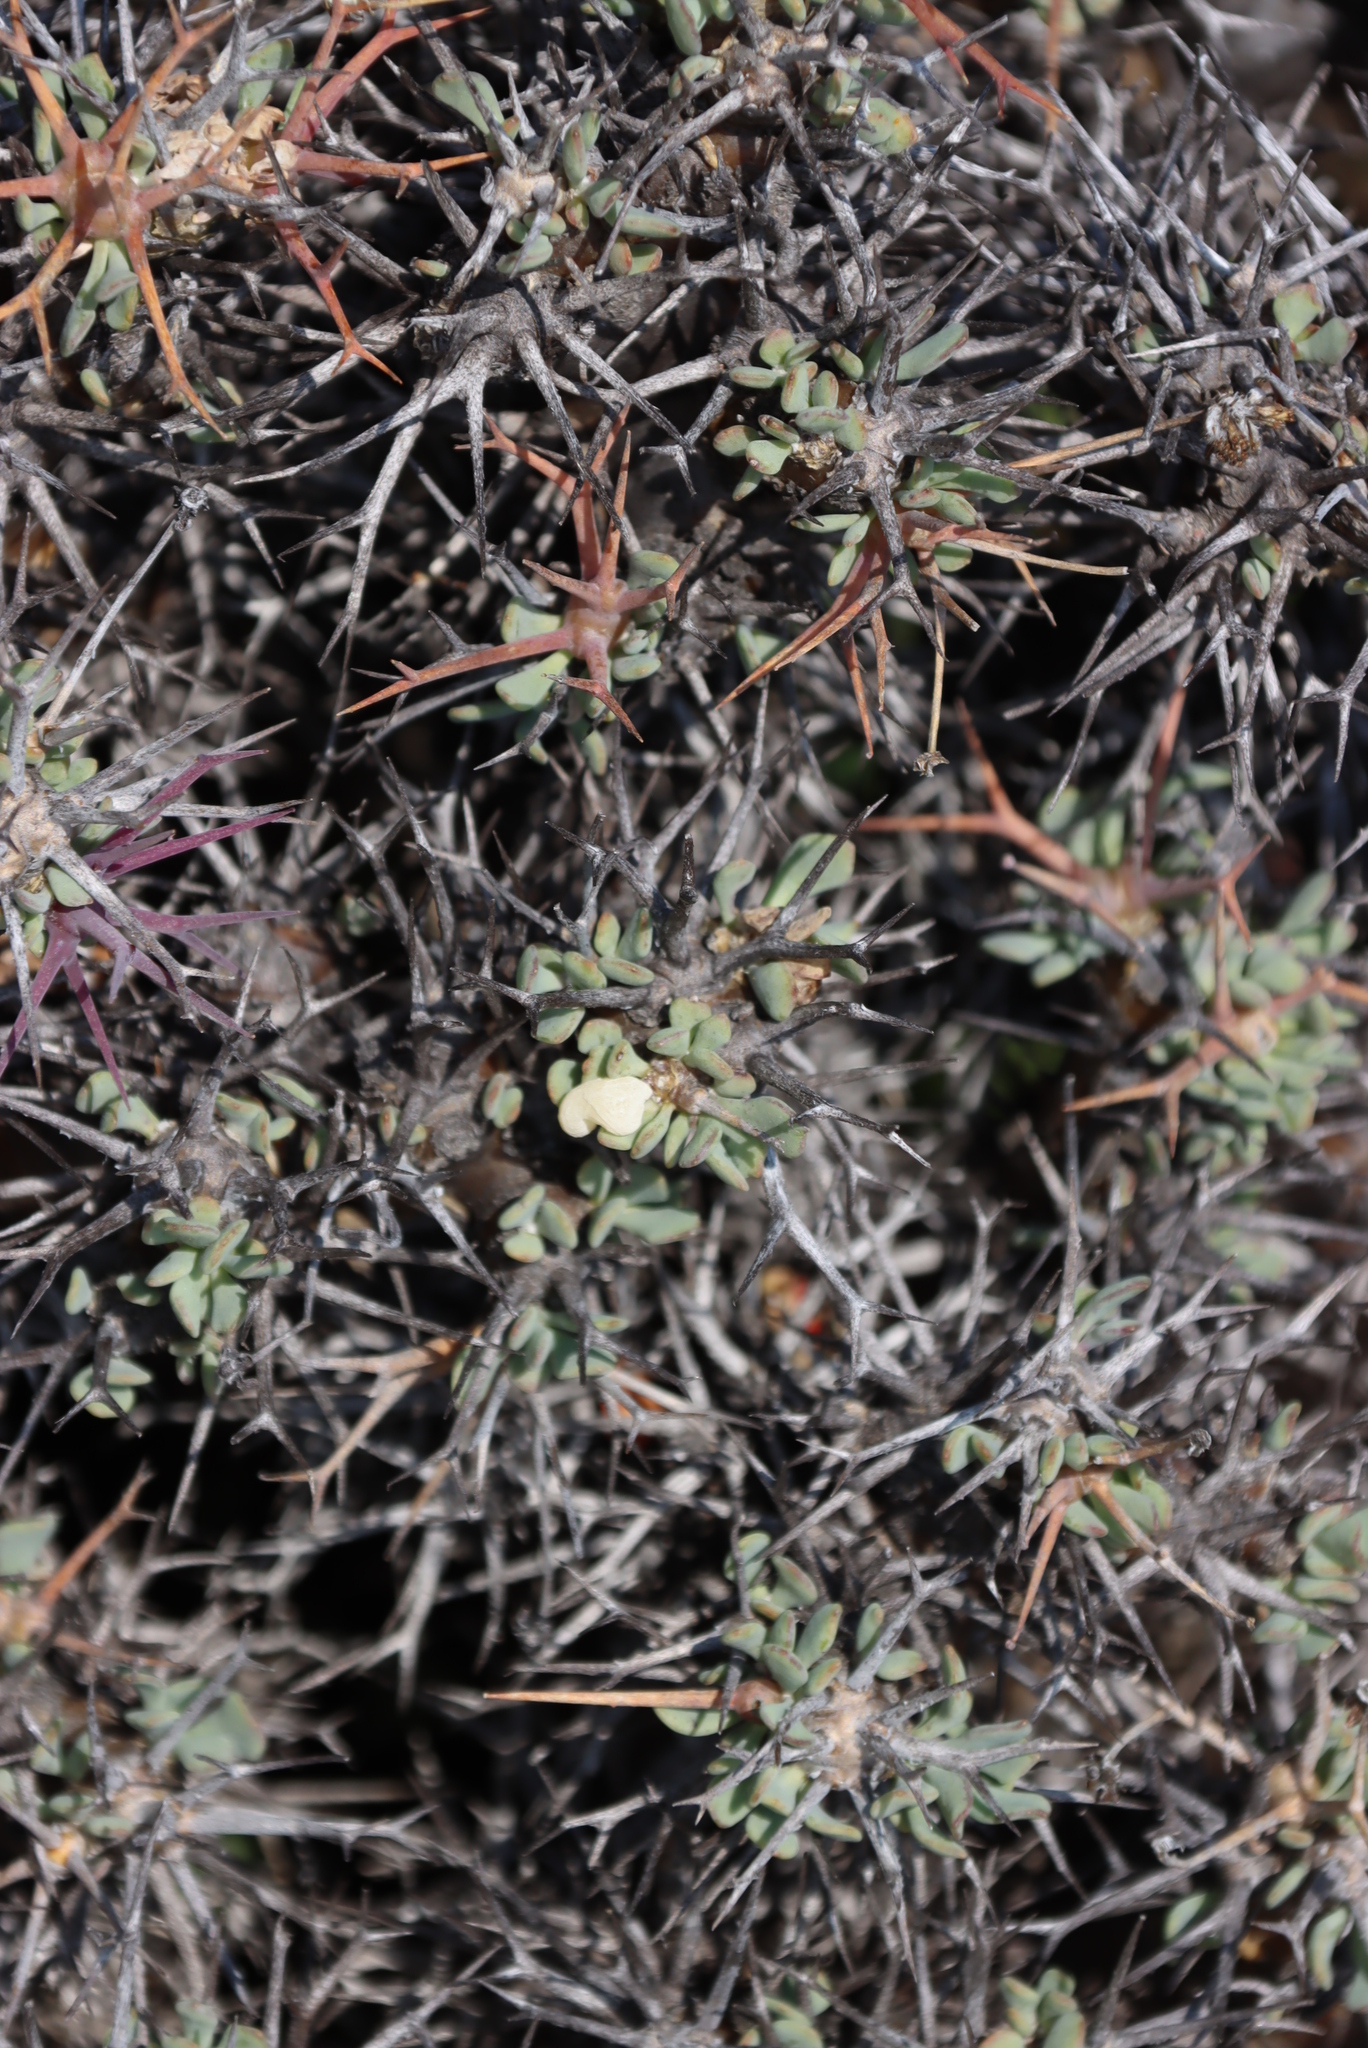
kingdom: Plantae
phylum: Tracheophyta
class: Magnoliopsida
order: Saxifragales
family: Crassulaceae
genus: Tylecodon
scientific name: Tylecodon reticulatus
